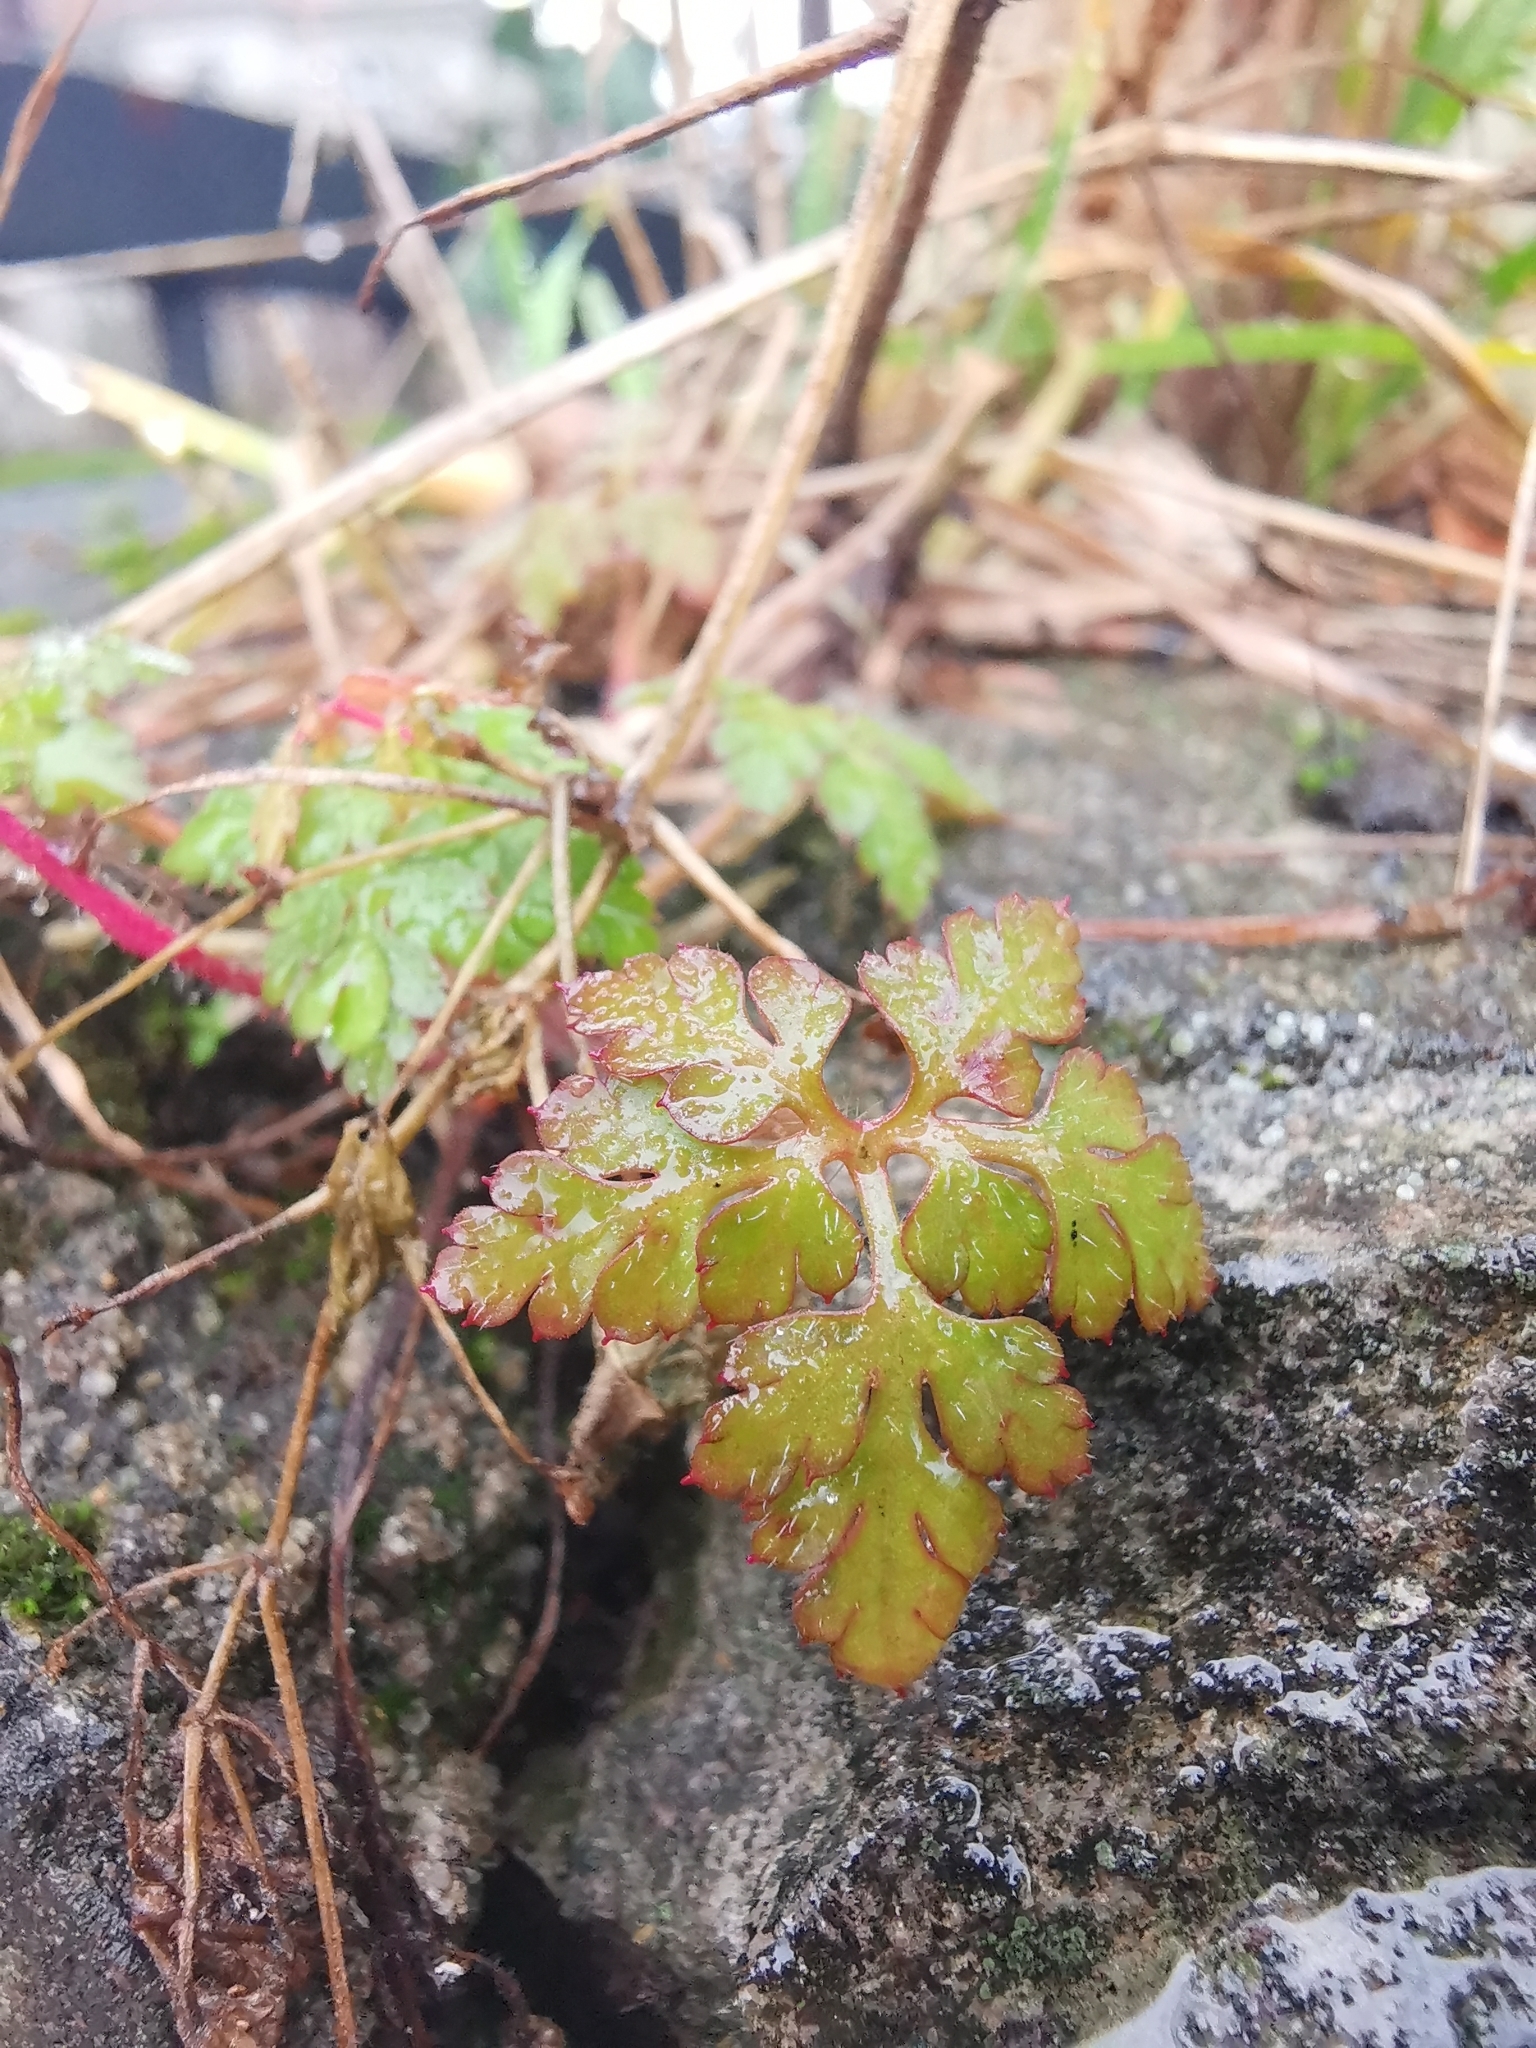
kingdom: Plantae
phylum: Tracheophyta
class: Magnoliopsida
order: Geraniales
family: Geraniaceae
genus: Geranium
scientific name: Geranium robertianum
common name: Herb-robert
